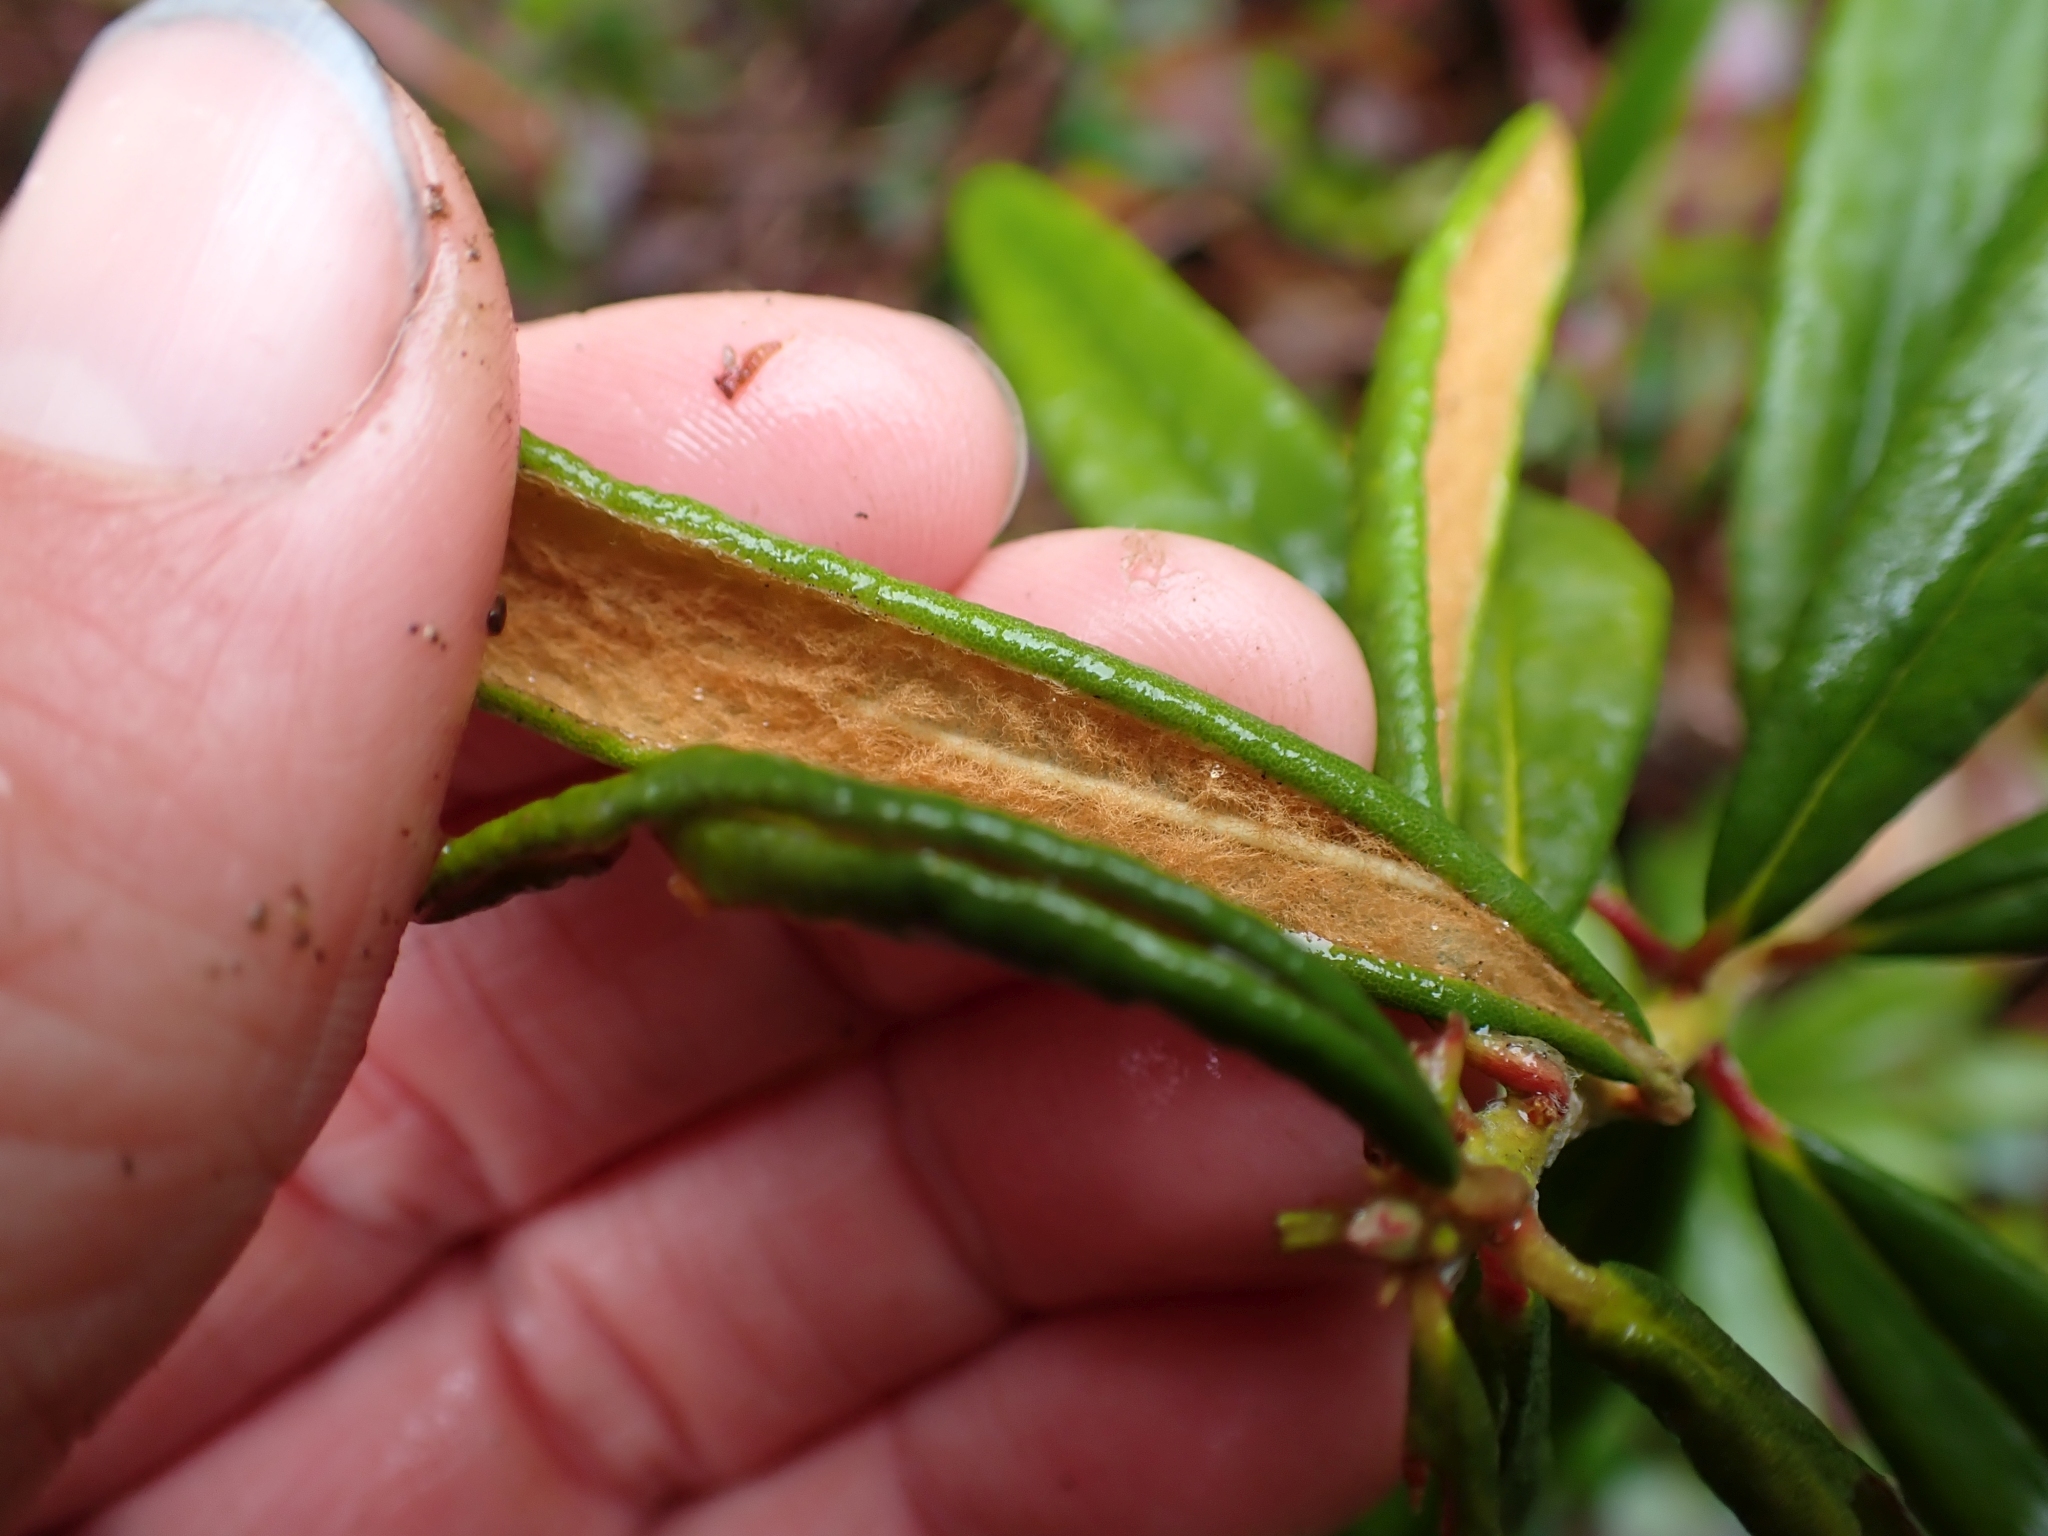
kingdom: Plantae
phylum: Tracheophyta
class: Magnoliopsida
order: Ericales
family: Ericaceae
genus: Rhododendron
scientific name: Rhododendron groenlandicum
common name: Bog labrador tea
